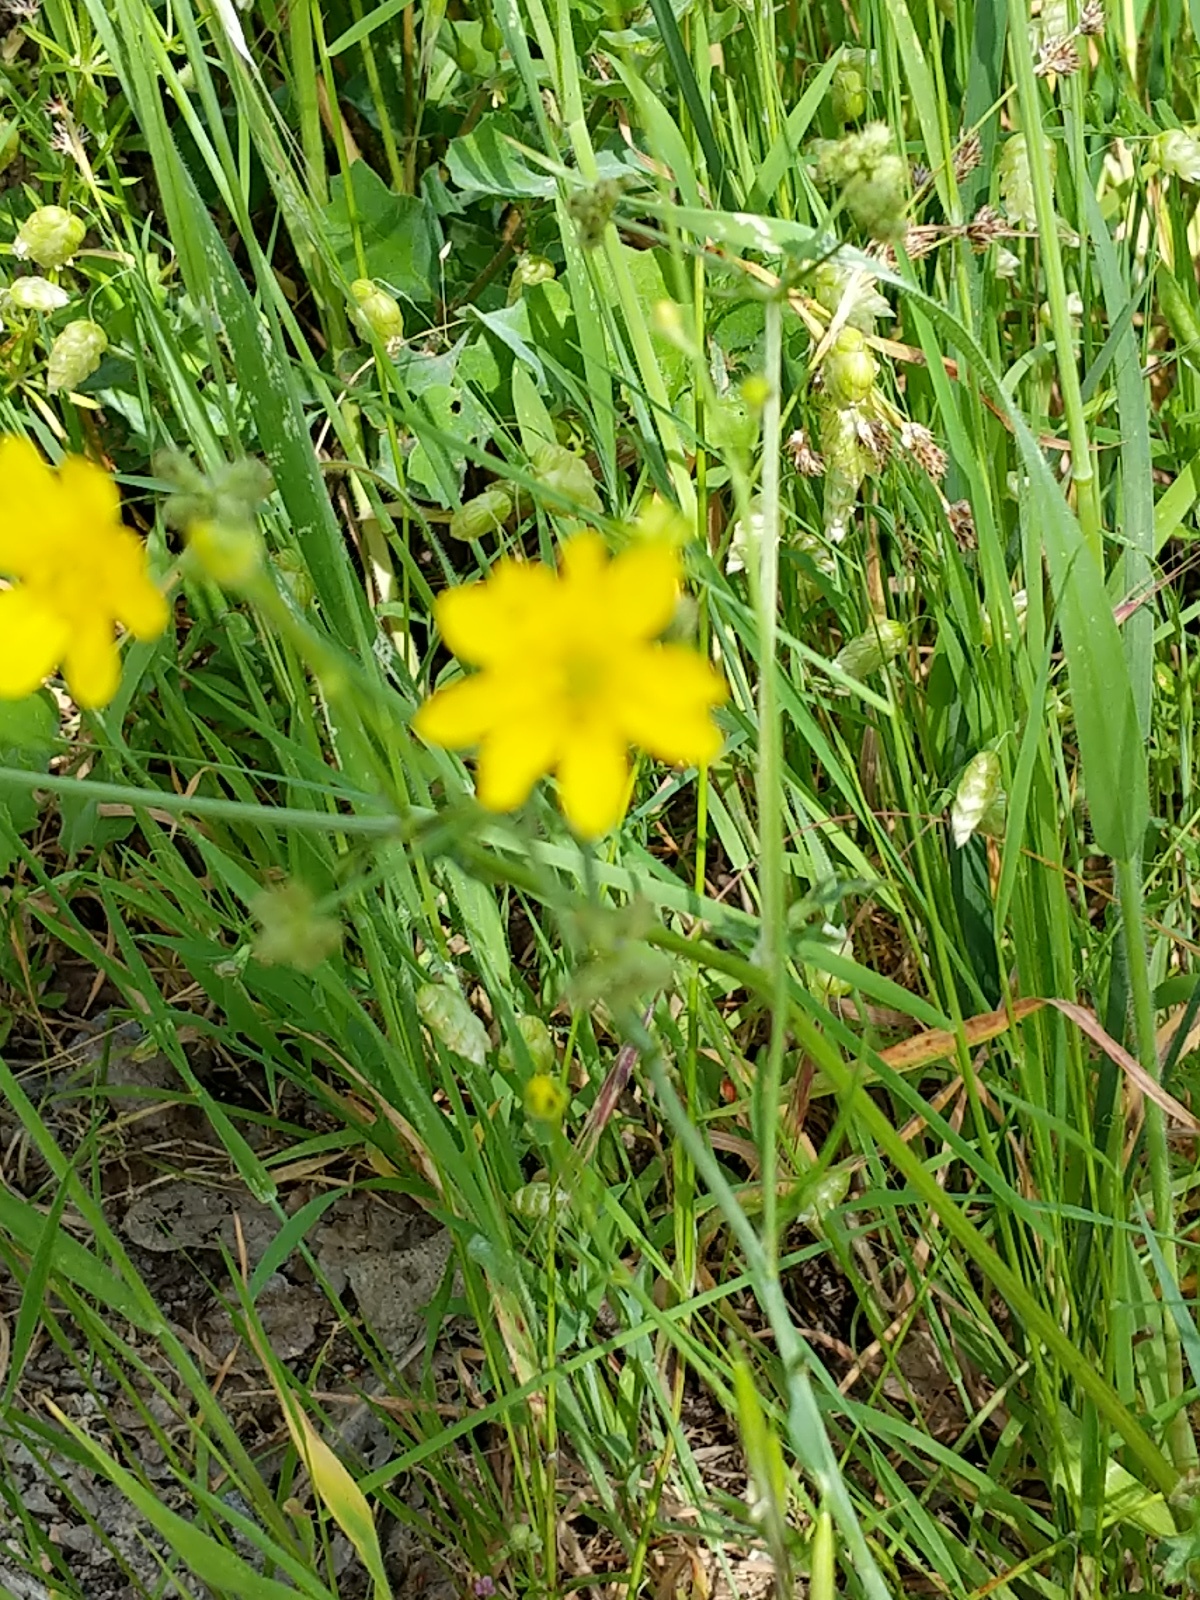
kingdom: Plantae
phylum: Tracheophyta
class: Magnoliopsida
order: Ranunculales
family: Ranunculaceae
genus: Ranunculus
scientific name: Ranunculus californicus
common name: California buttercup
